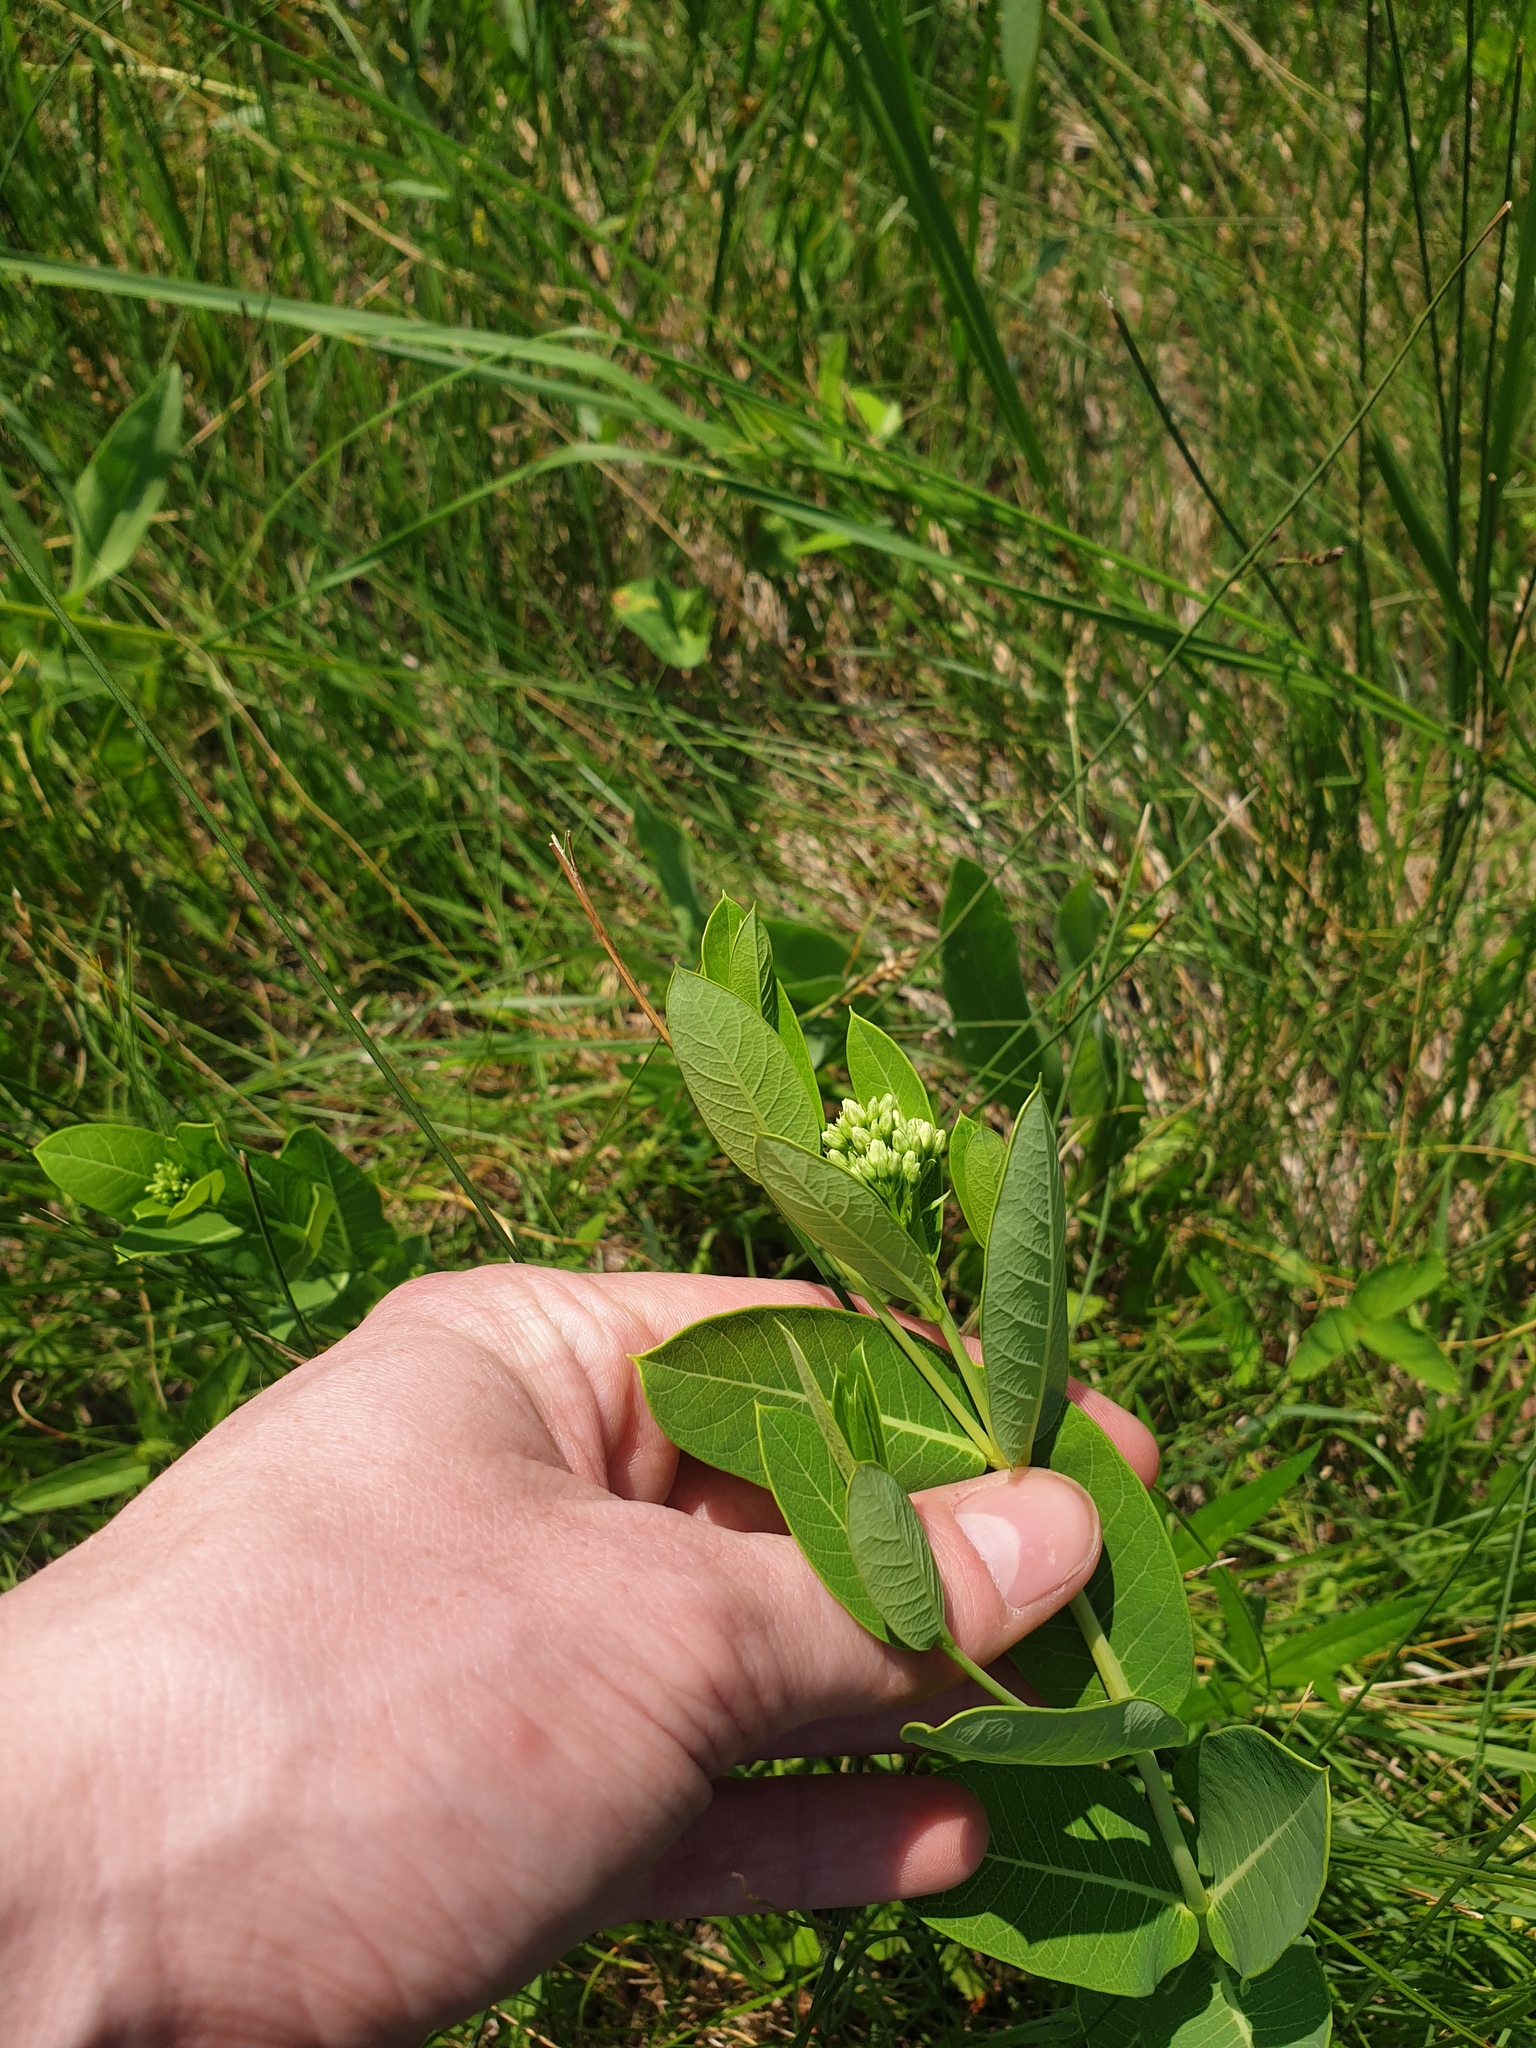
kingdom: Plantae
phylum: Tracheophyta
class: Magnoliopsida
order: Gentianales
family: Apocynaceae
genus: Apocynum
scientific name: Apocynum cannabinum
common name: Hemp dogbane
